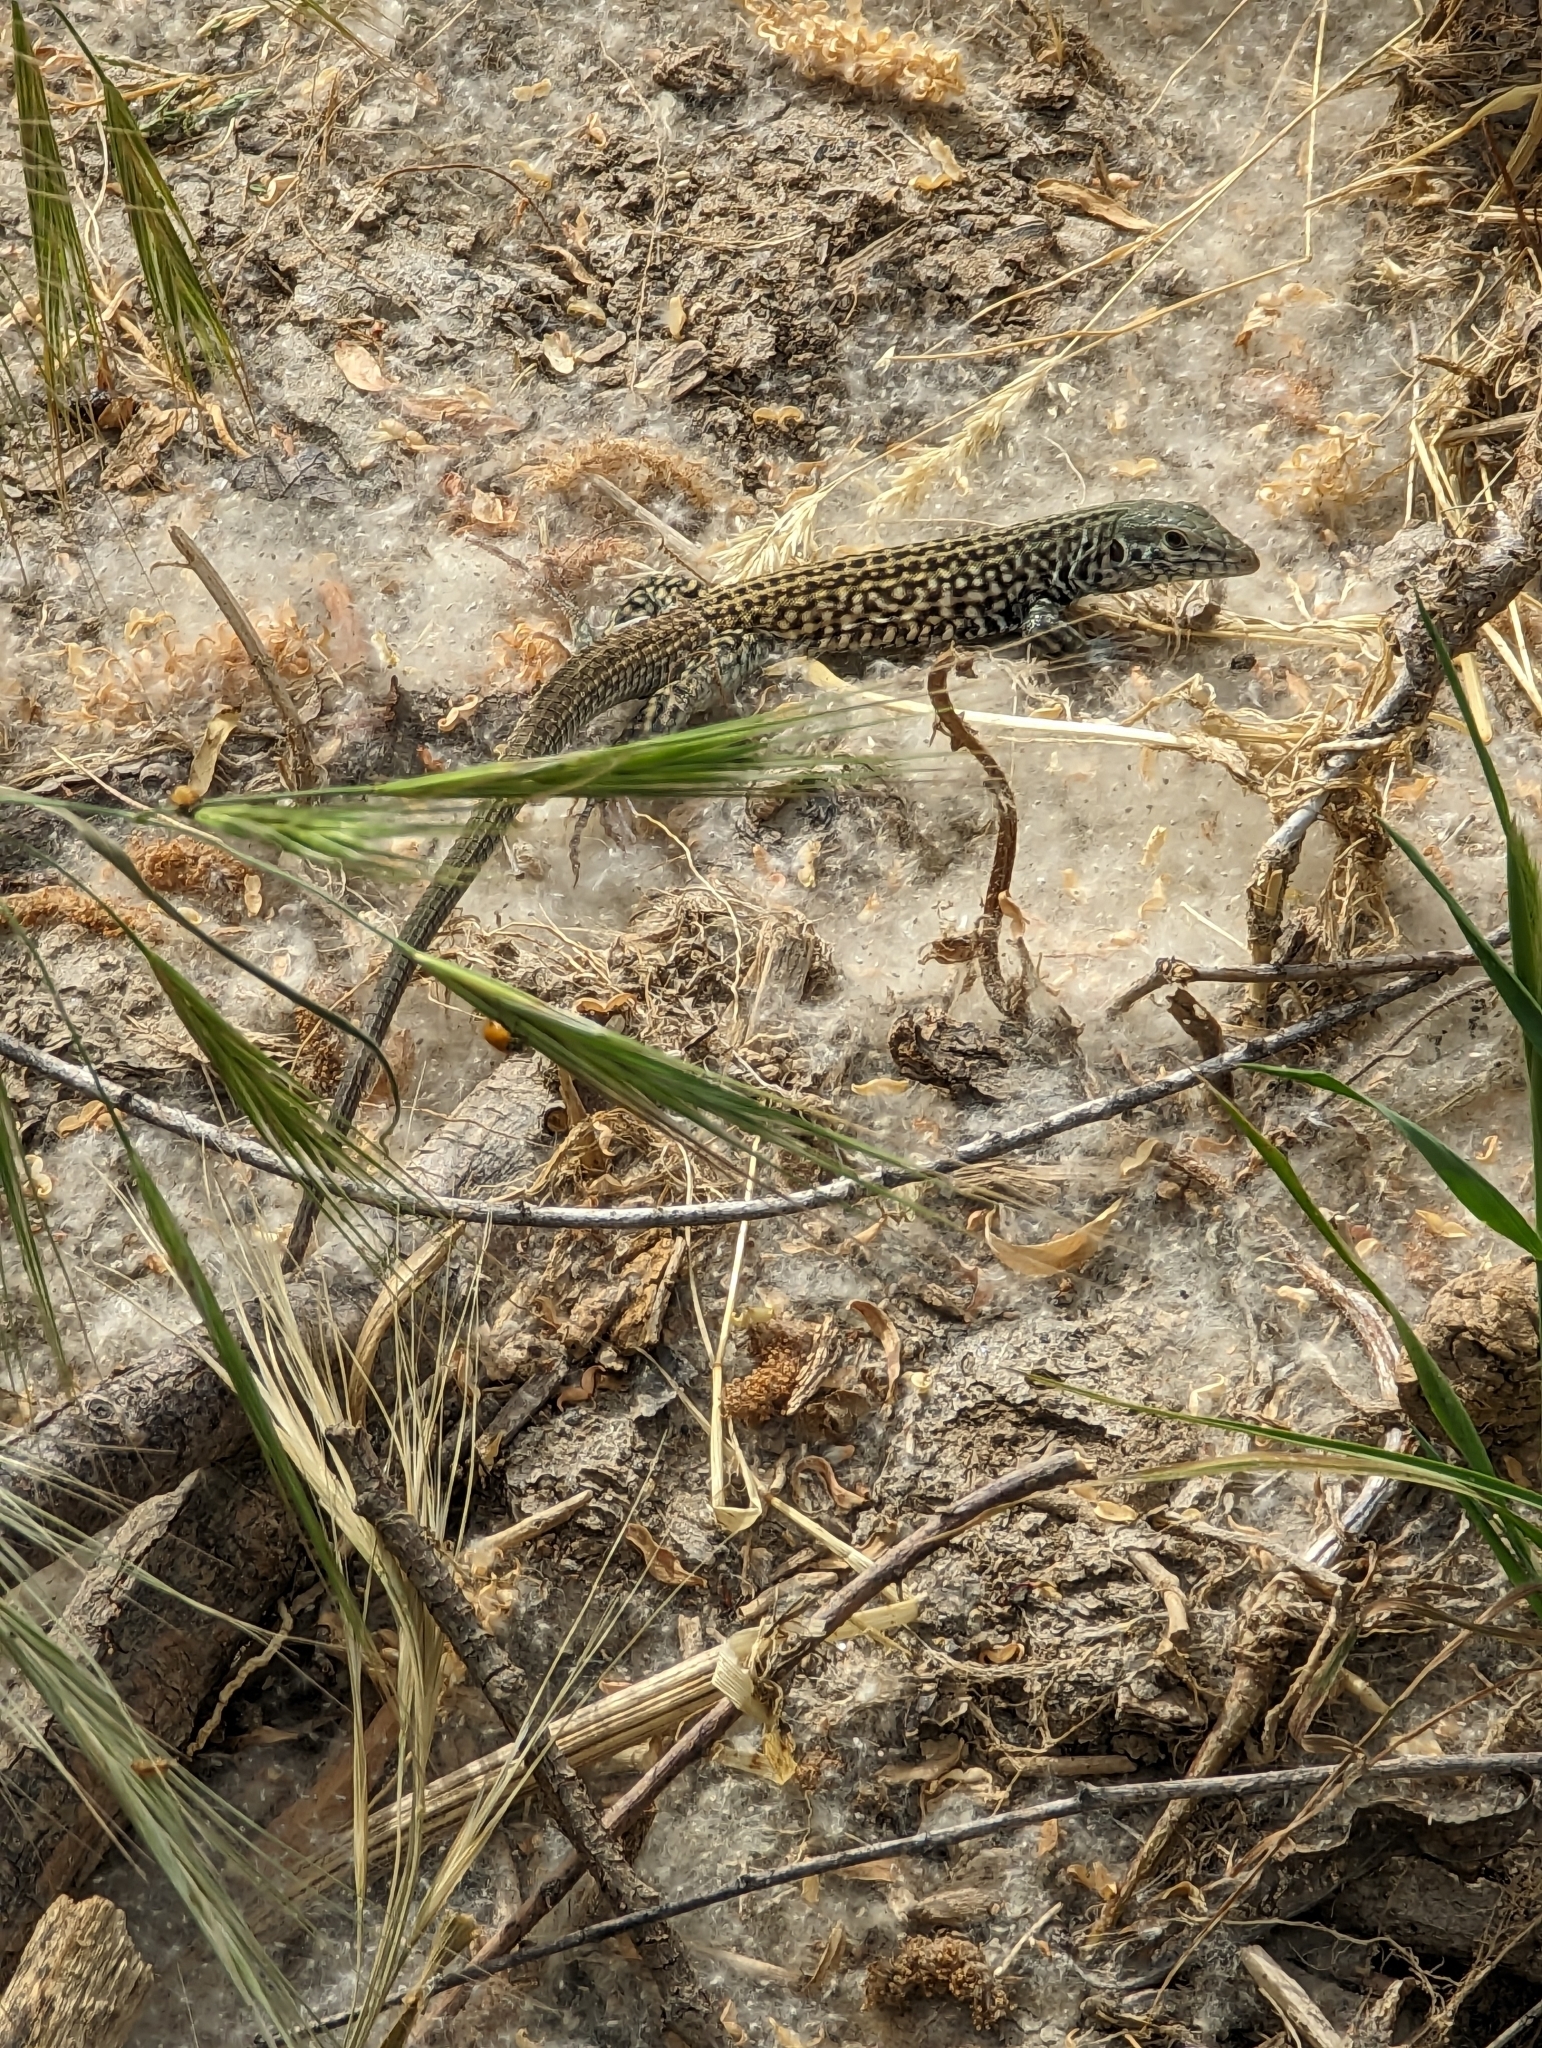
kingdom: Animalia
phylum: Chordata
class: Squamata
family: Teiidae
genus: Aspidoscelis
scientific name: Aspidoscelis tigris
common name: Tiger whiptail
